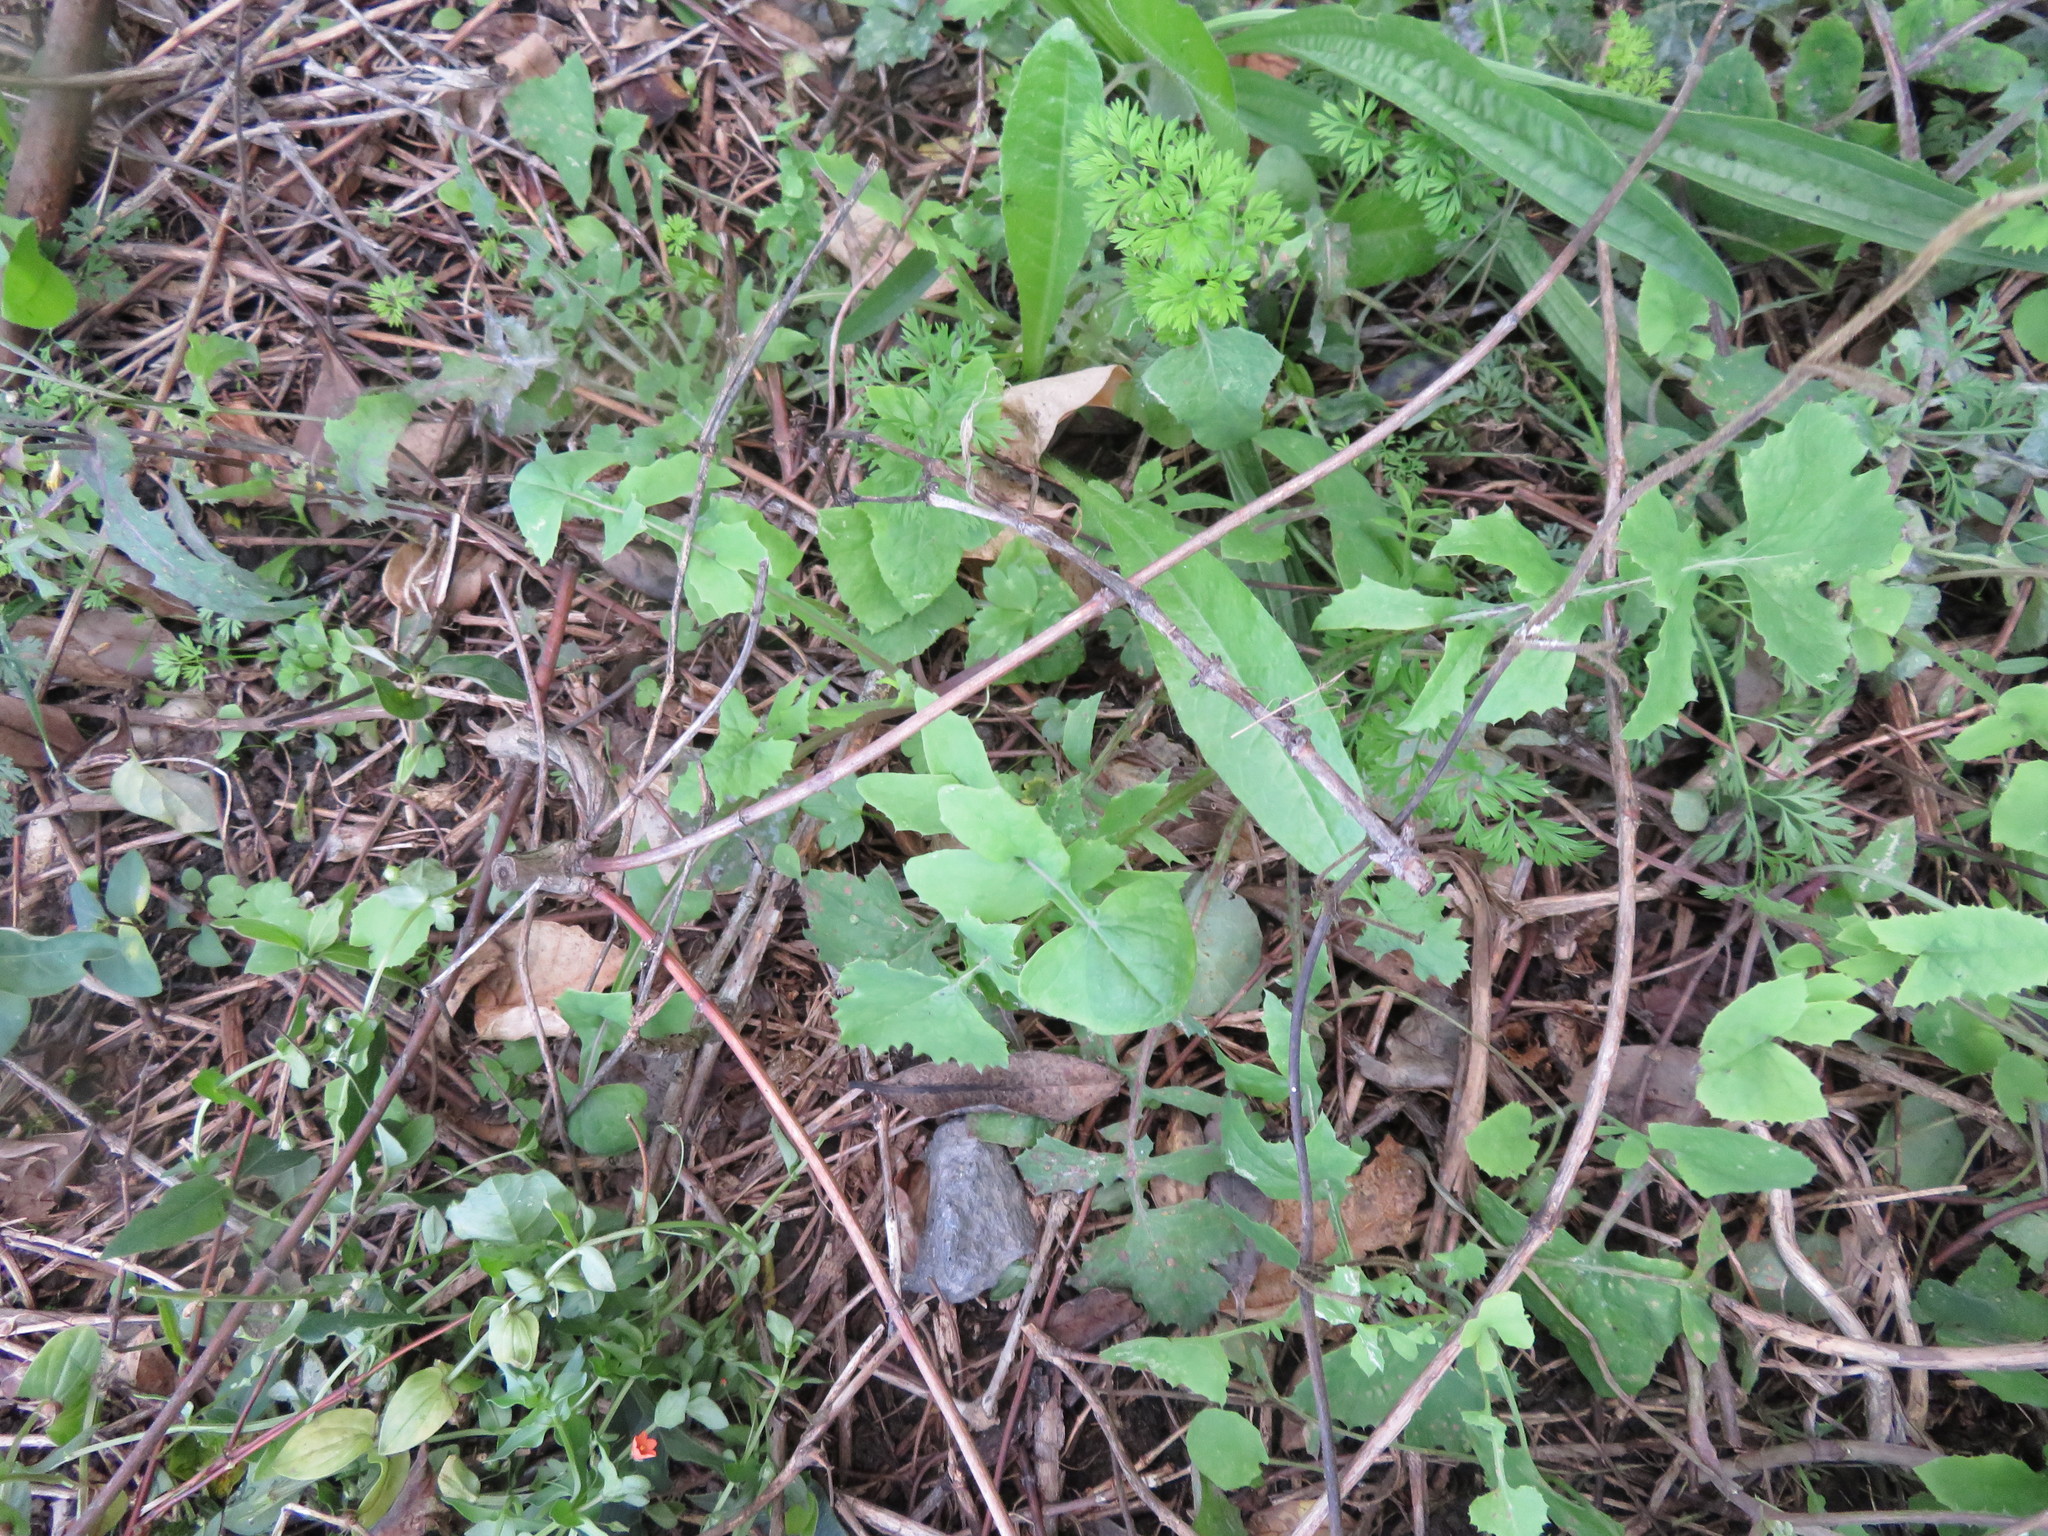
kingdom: Plantae
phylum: Tracheophyta
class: Magnoliopsida
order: Asterales
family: Asteraceae
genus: Sonchus
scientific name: Sonchus oleraceus
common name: Common sowthistle
